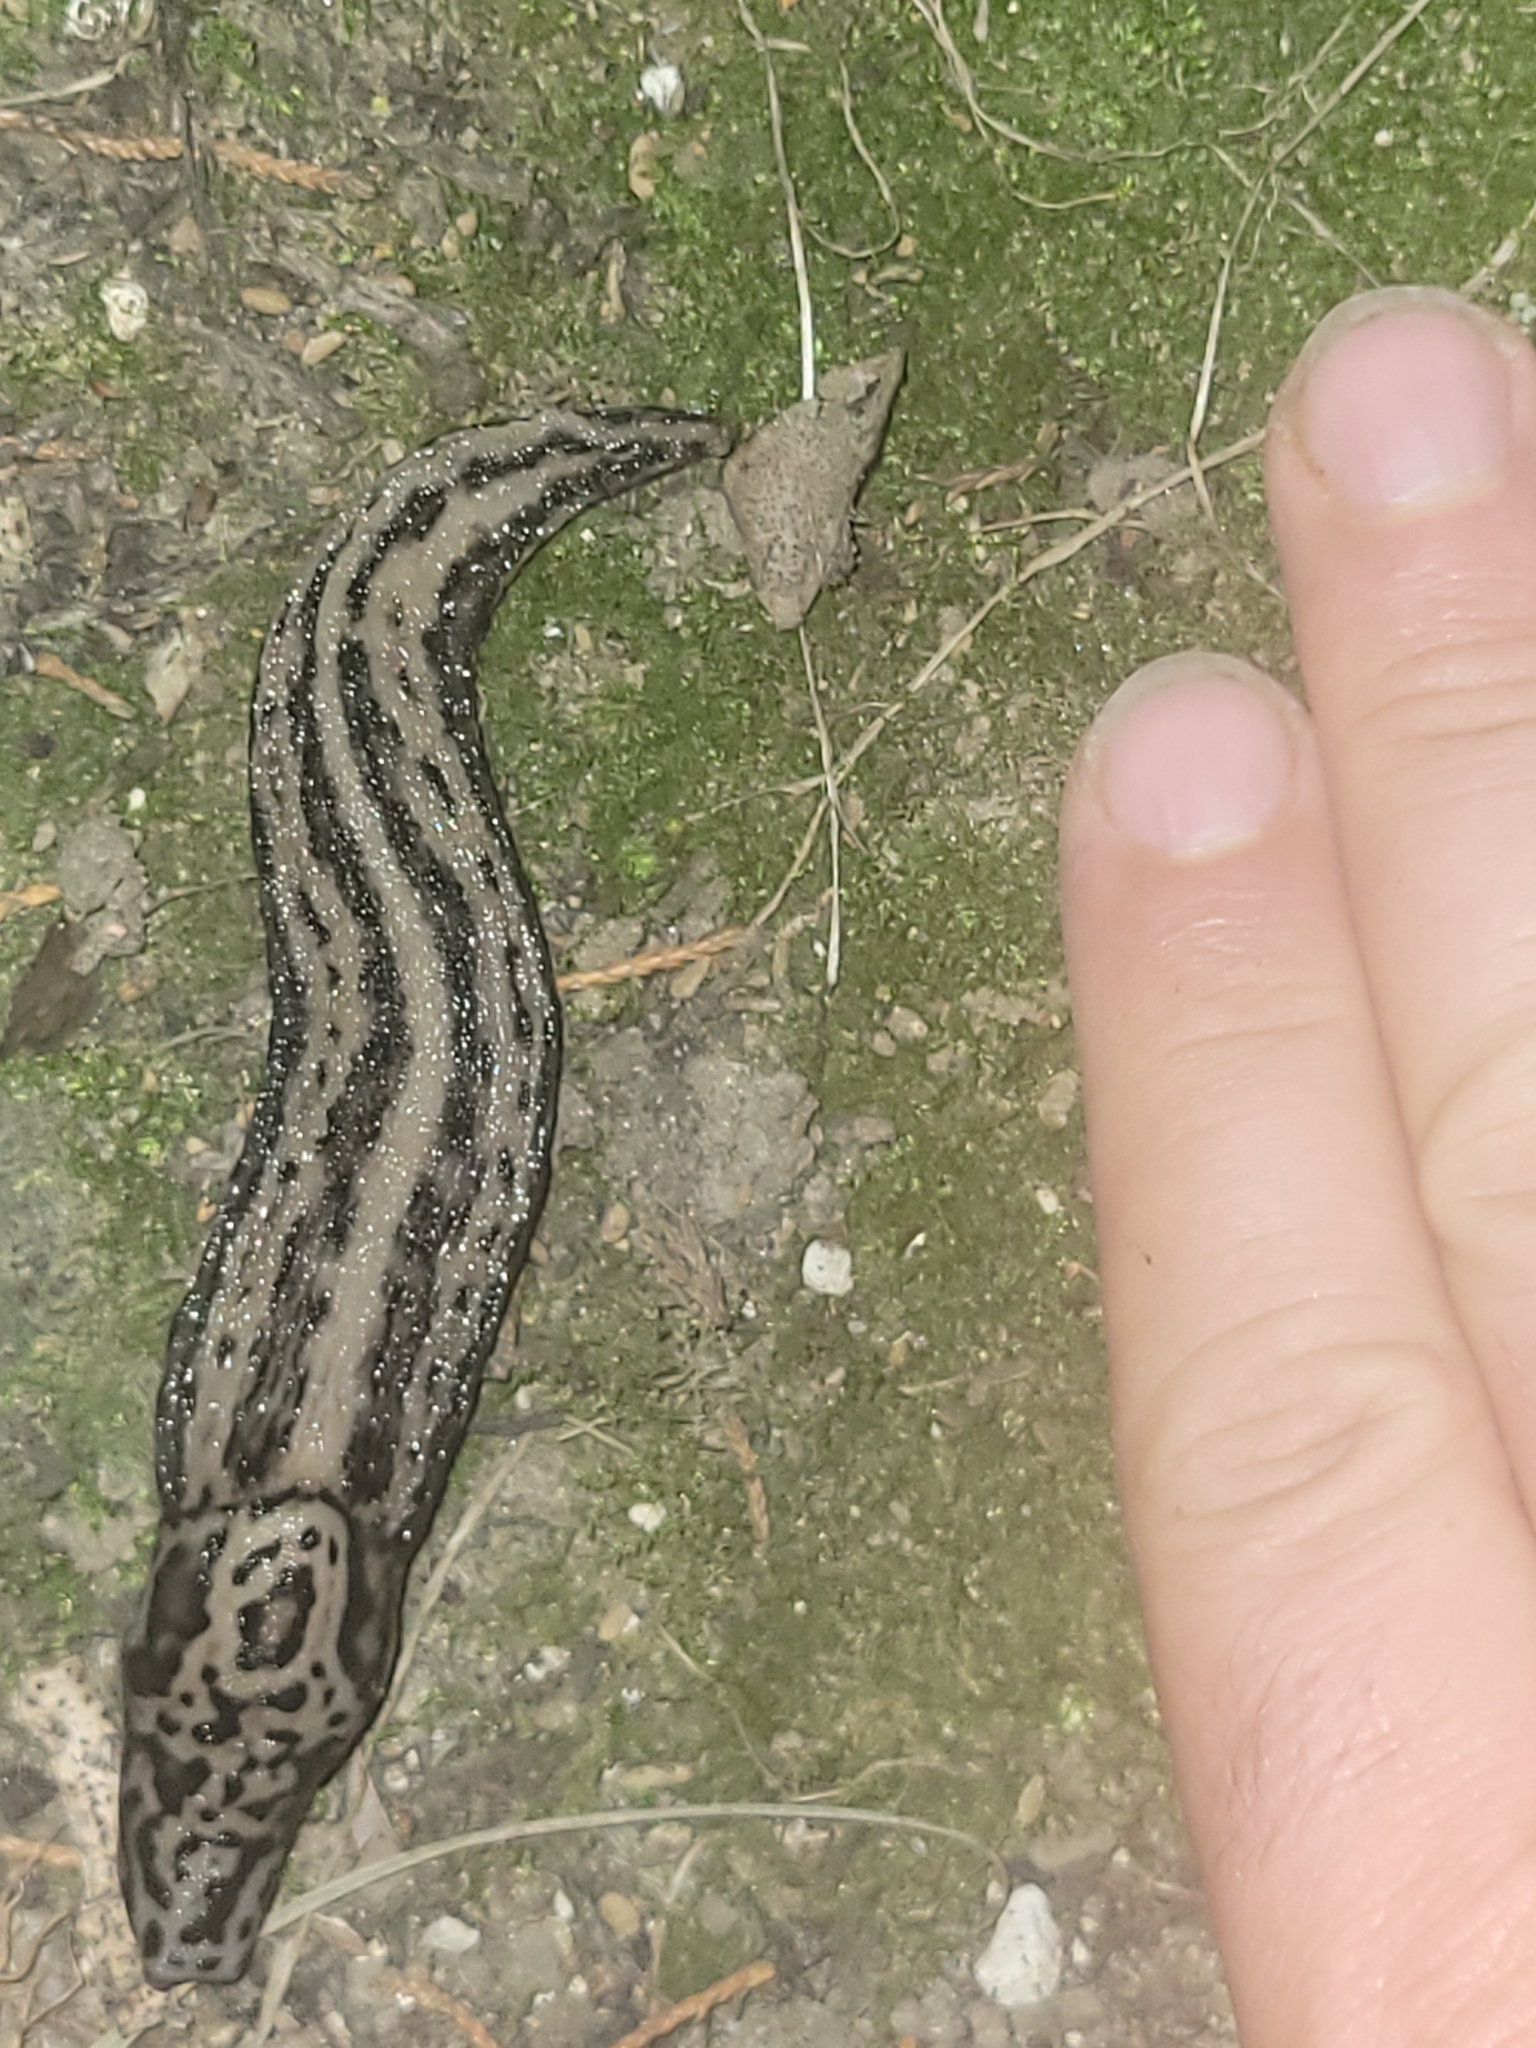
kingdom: Animalia
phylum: Mollusca
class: Gastropoda
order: Stylommatophora
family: Limacidae
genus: Limax
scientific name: Limax maximus
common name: Great grey slug
